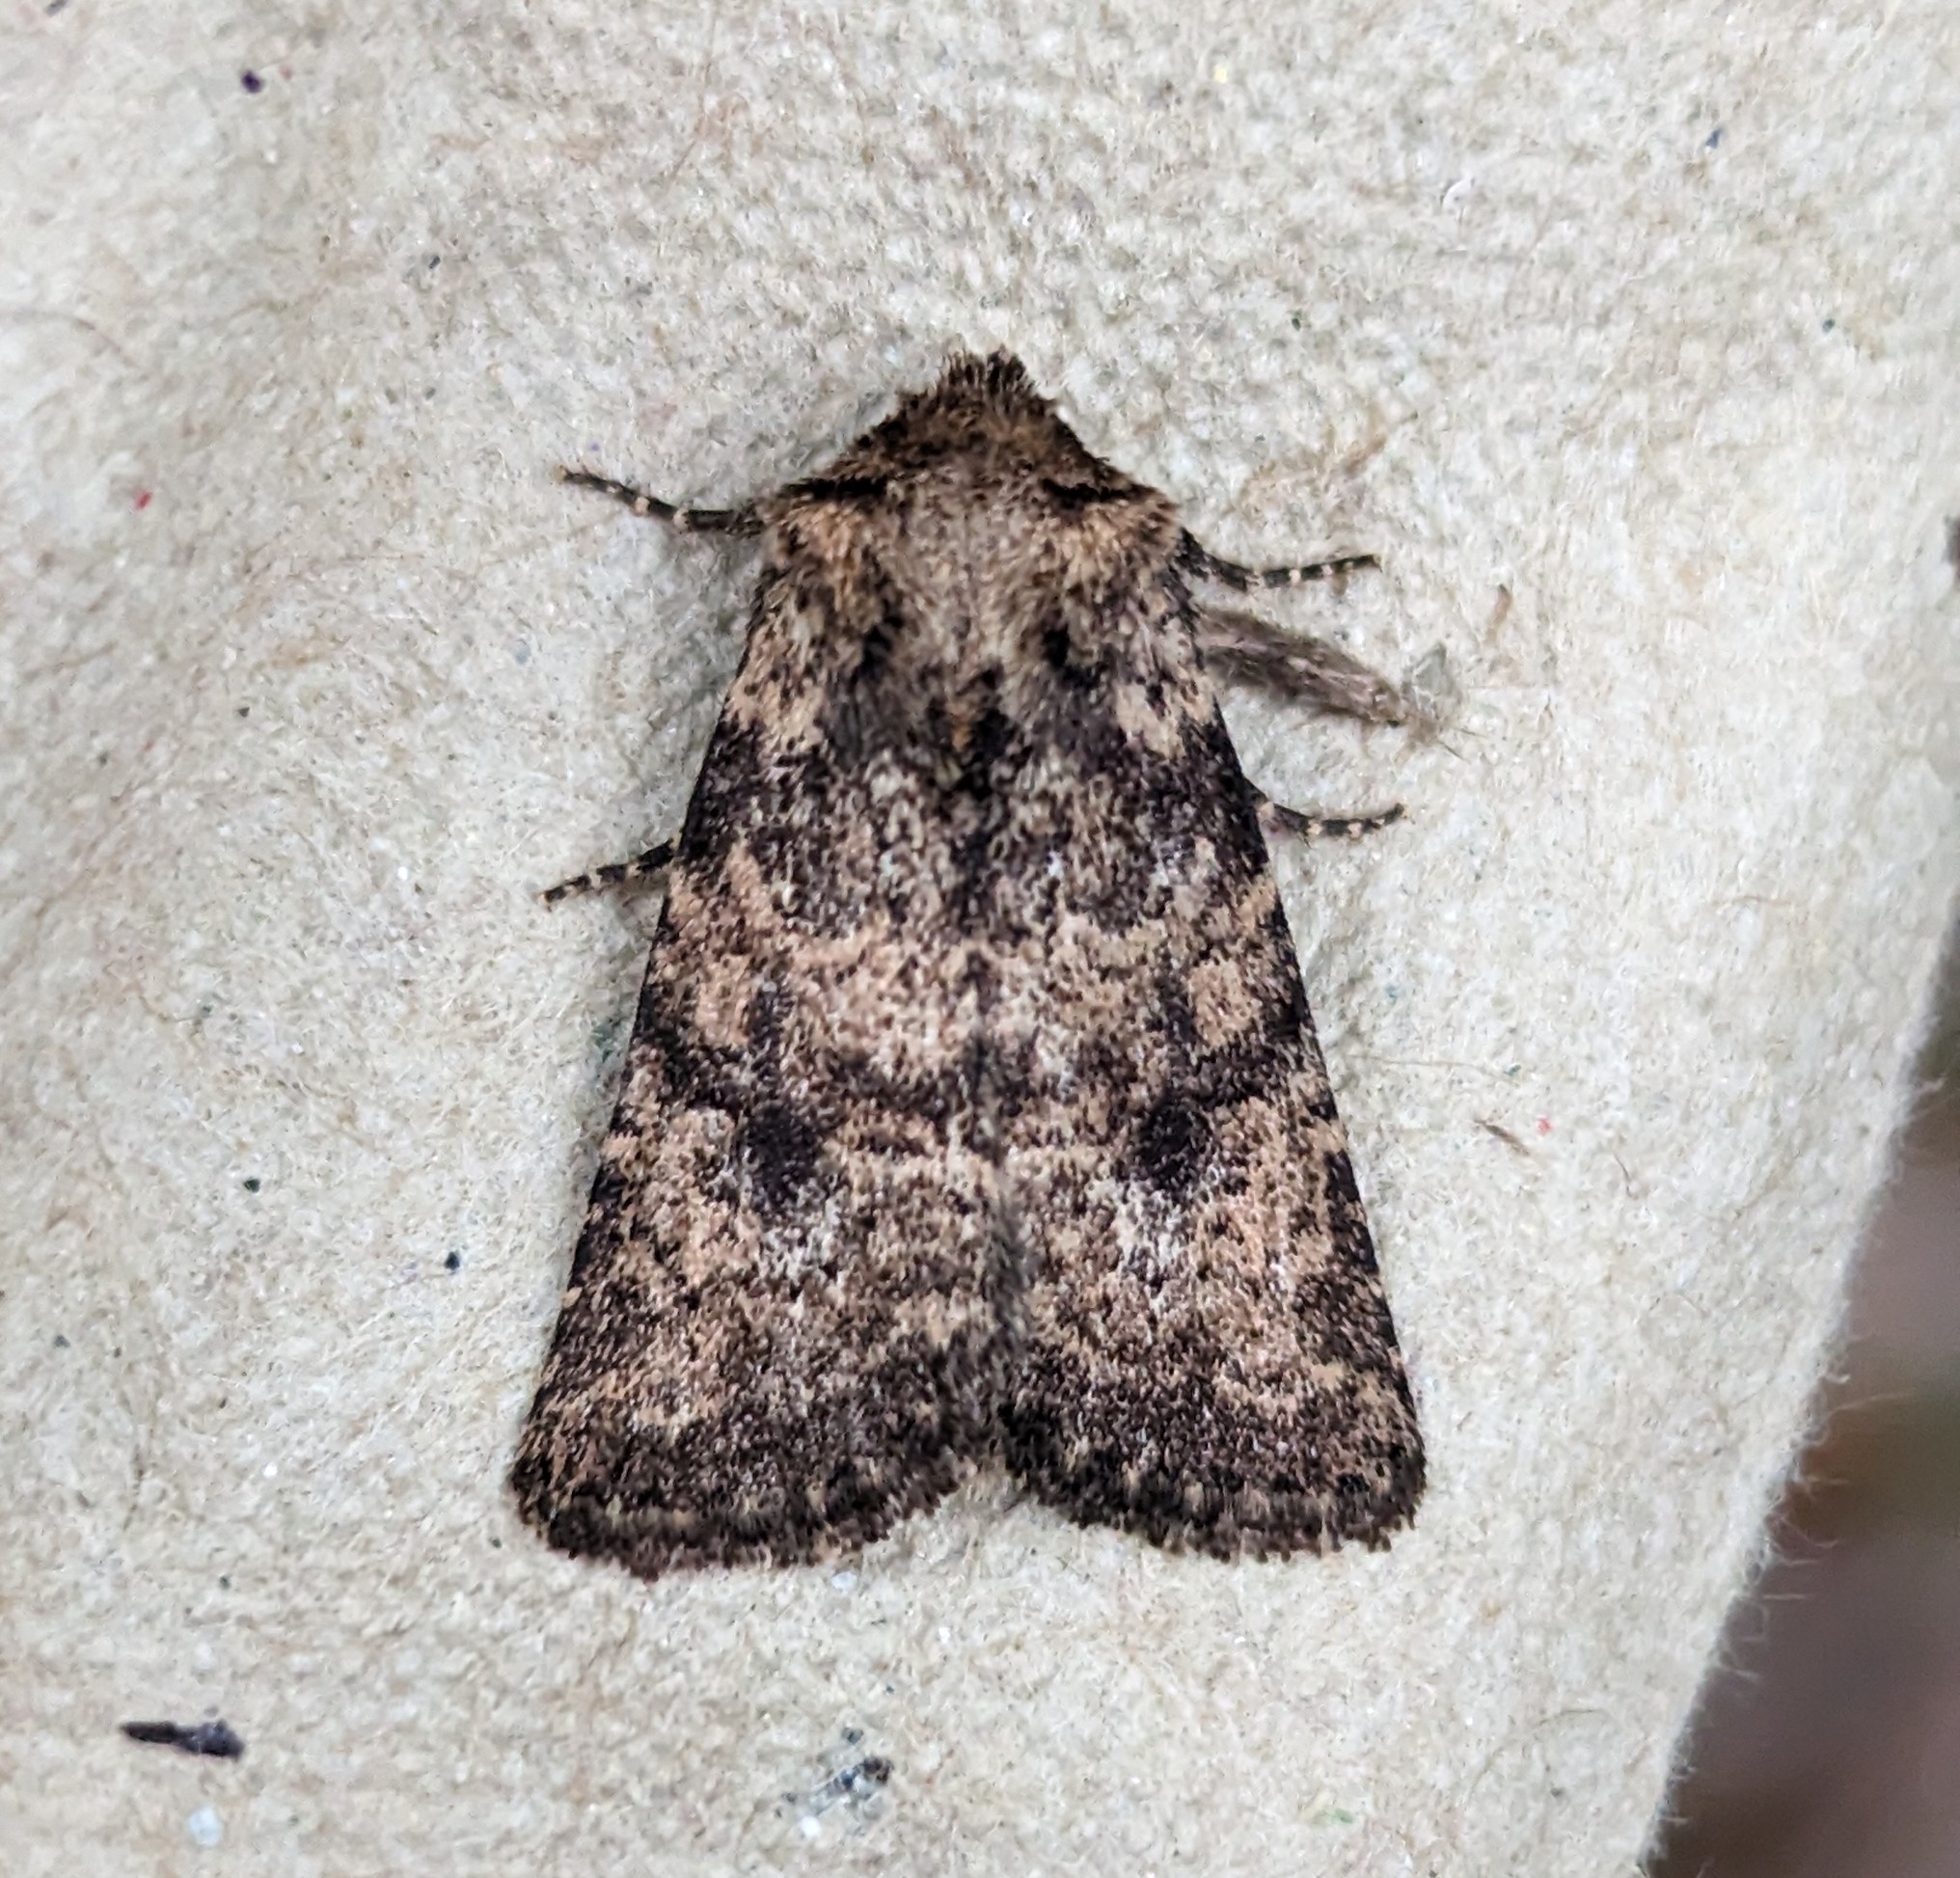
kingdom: Animalia
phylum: Arthropoda
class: Insecta
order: Lepidoptera
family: Noctuidae
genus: Homorthodes
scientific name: Homorthodes hanhami
